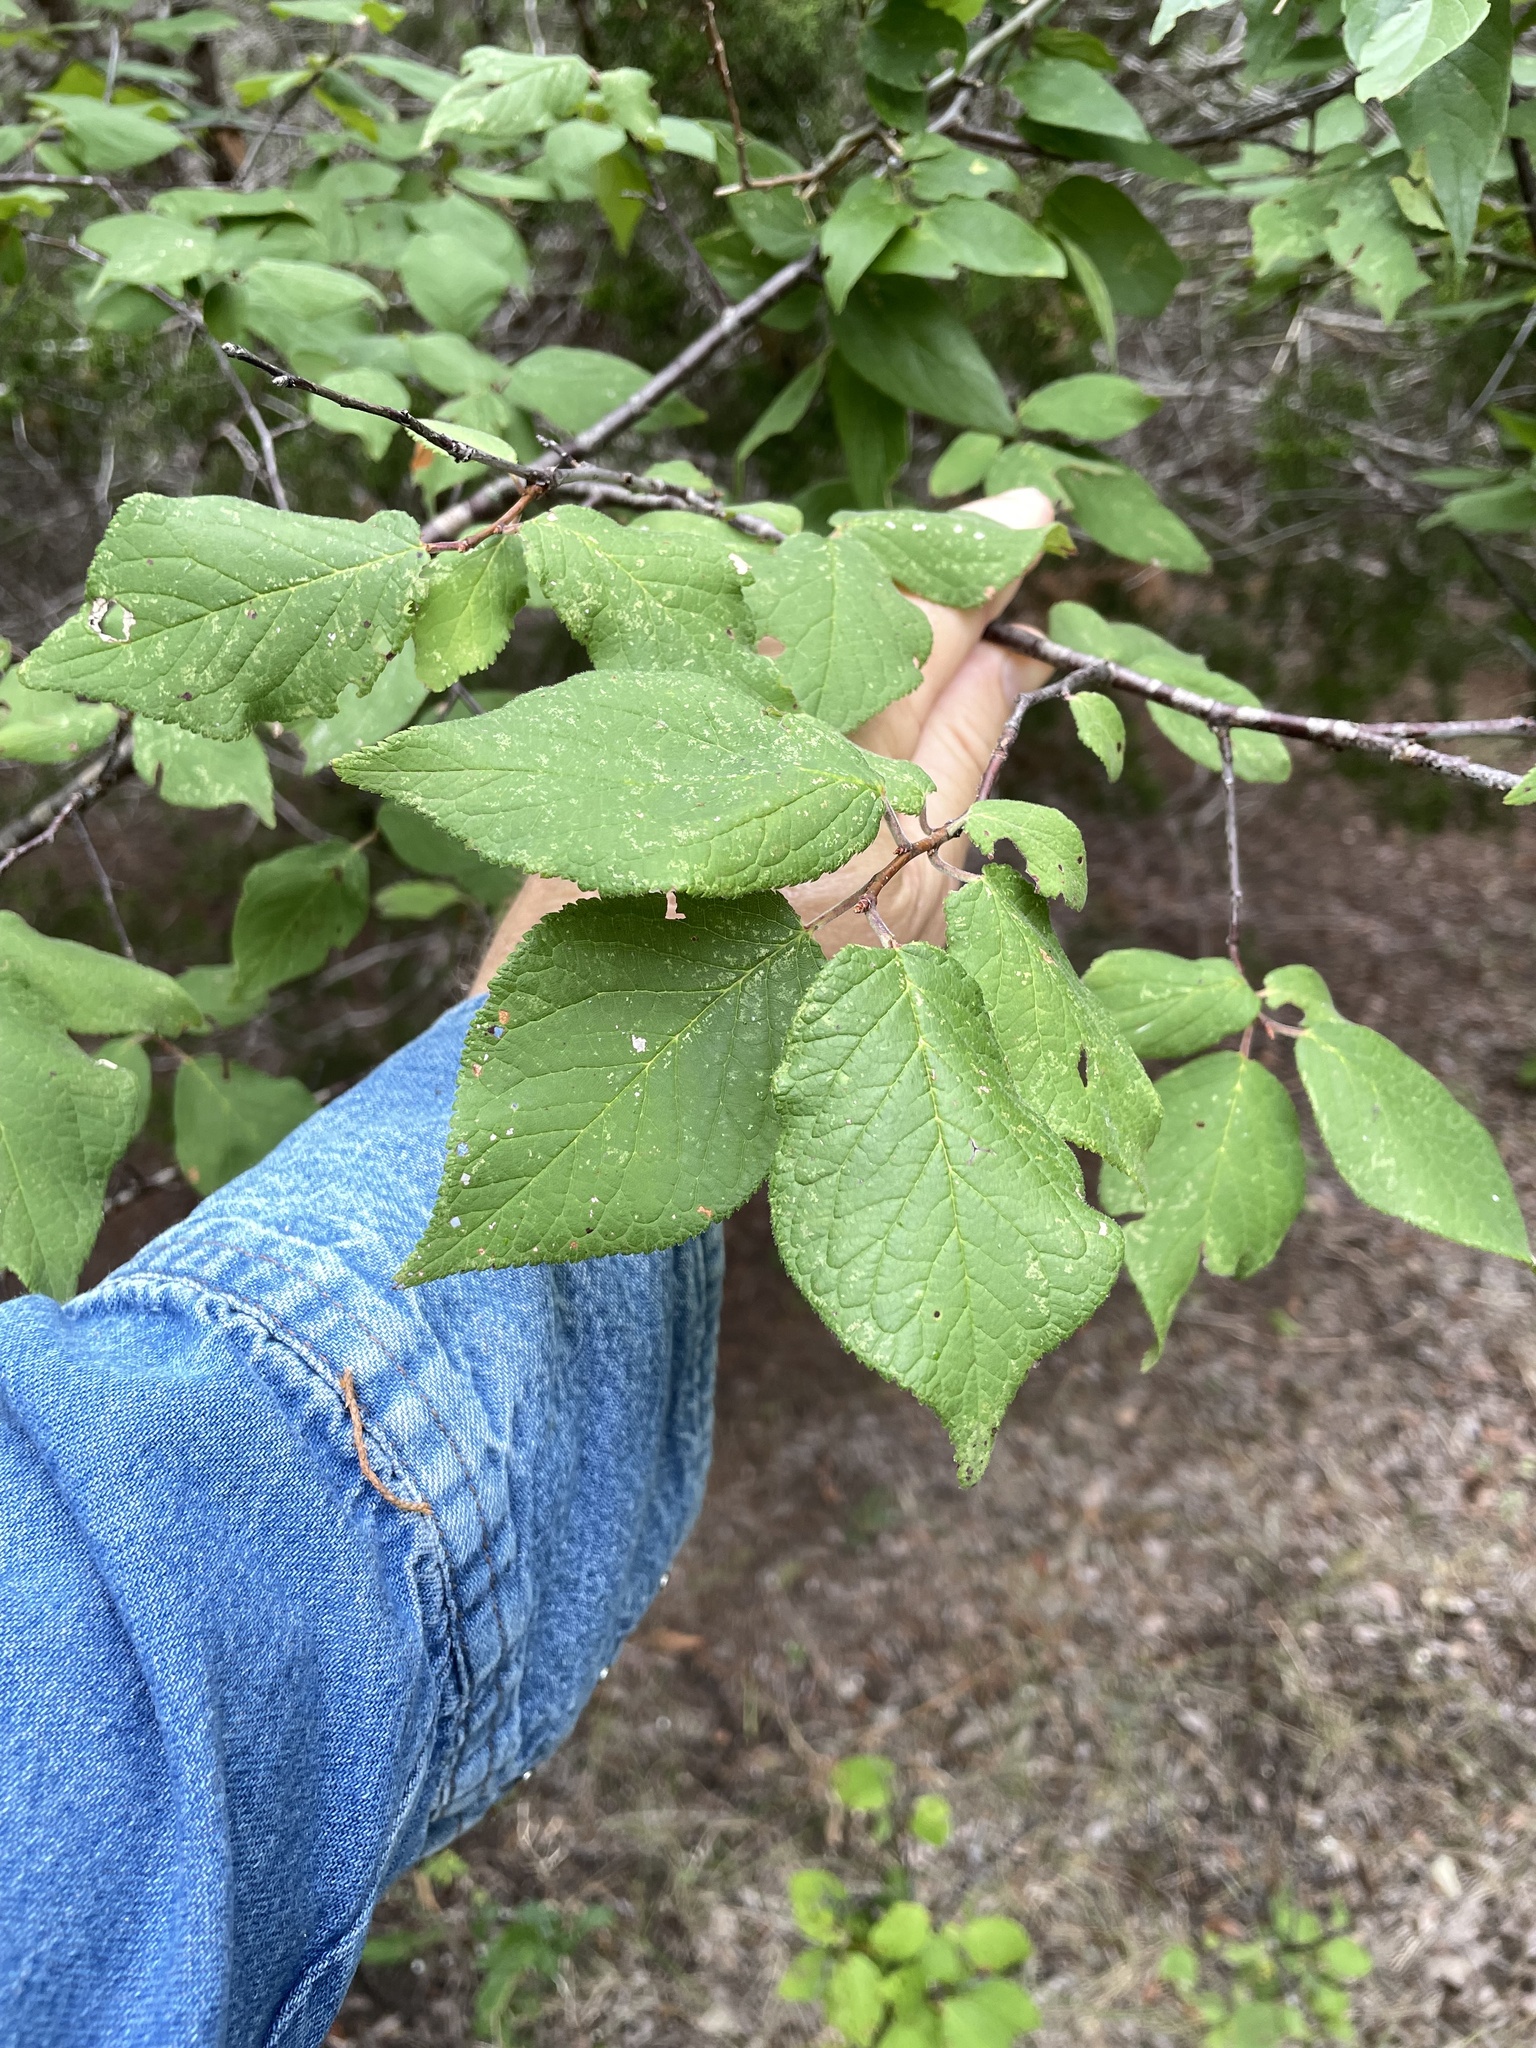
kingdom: Plantae
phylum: Tracheophyta
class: Magnoliopsida
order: Rosales
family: Rosaceae
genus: Prunus
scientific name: Prunus mexicana
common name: Mexican plum
